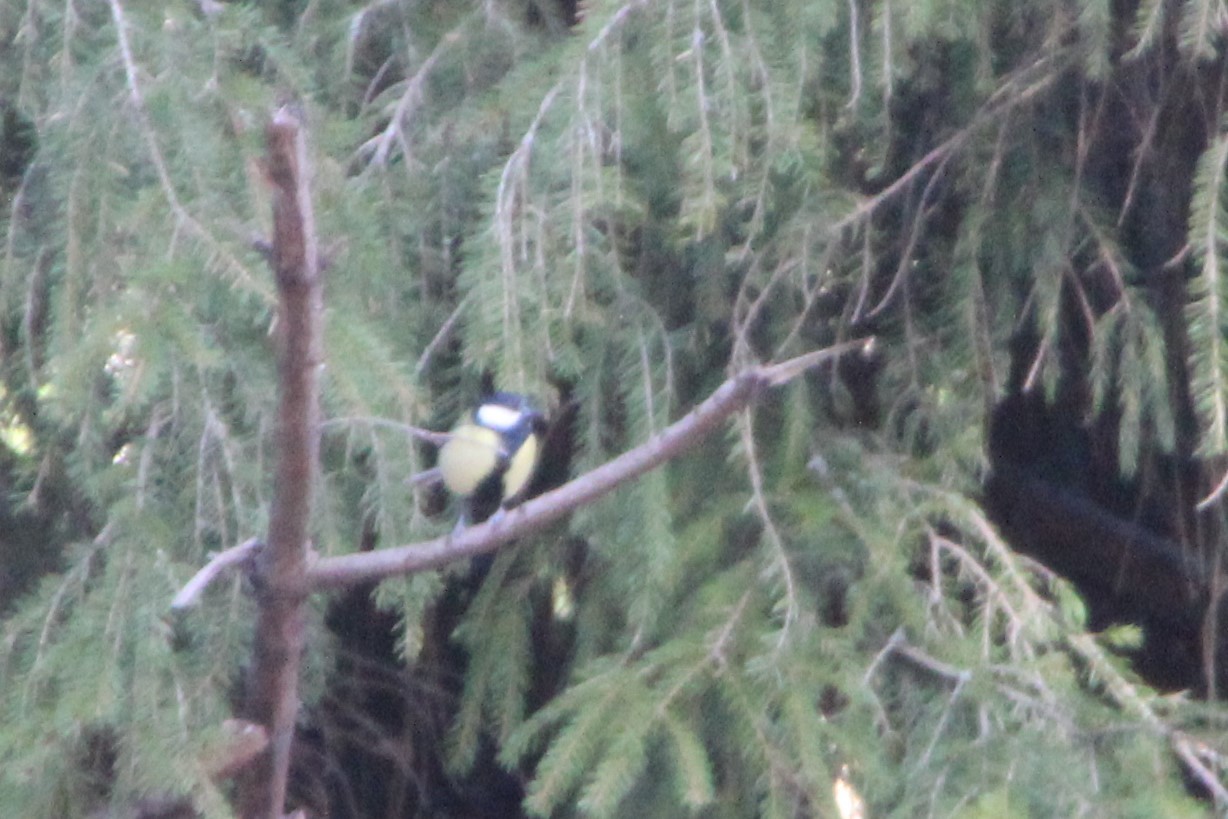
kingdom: Animalia
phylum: Chordata
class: Aves
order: Passeriformes
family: Paridae
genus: Parus
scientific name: Parus major
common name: Great tit
